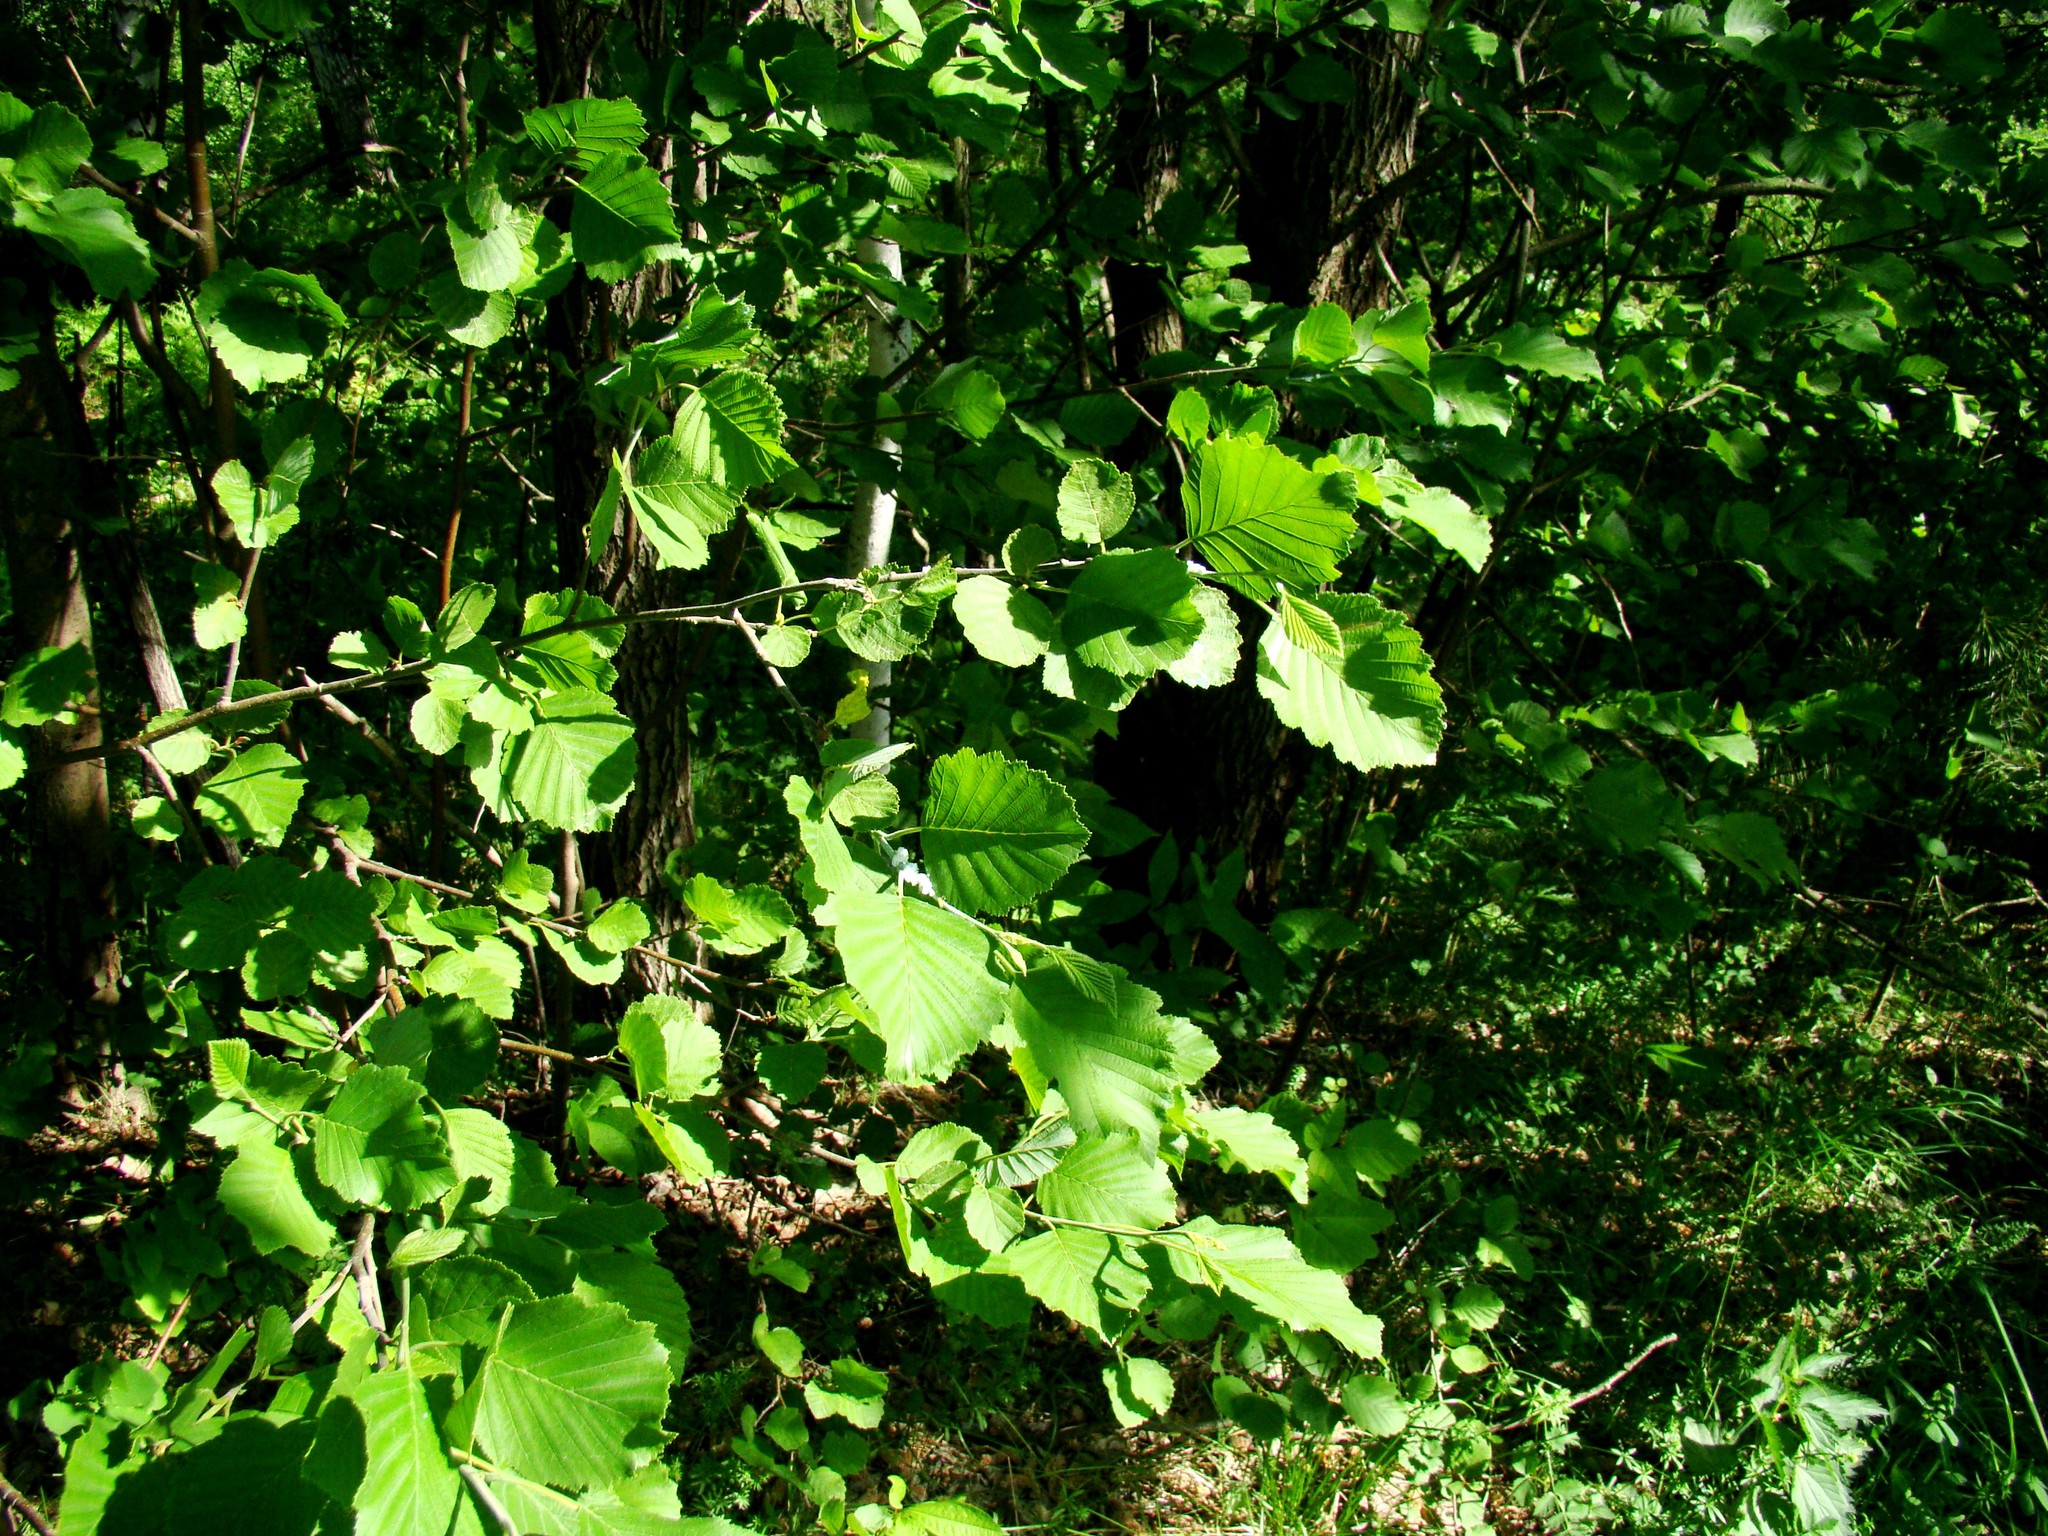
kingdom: Plantae
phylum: Tracheophyta
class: Magnoliopsida
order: Fagales
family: Betulaceae
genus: Alnus
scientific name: Alnus incana
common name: Grey alder
